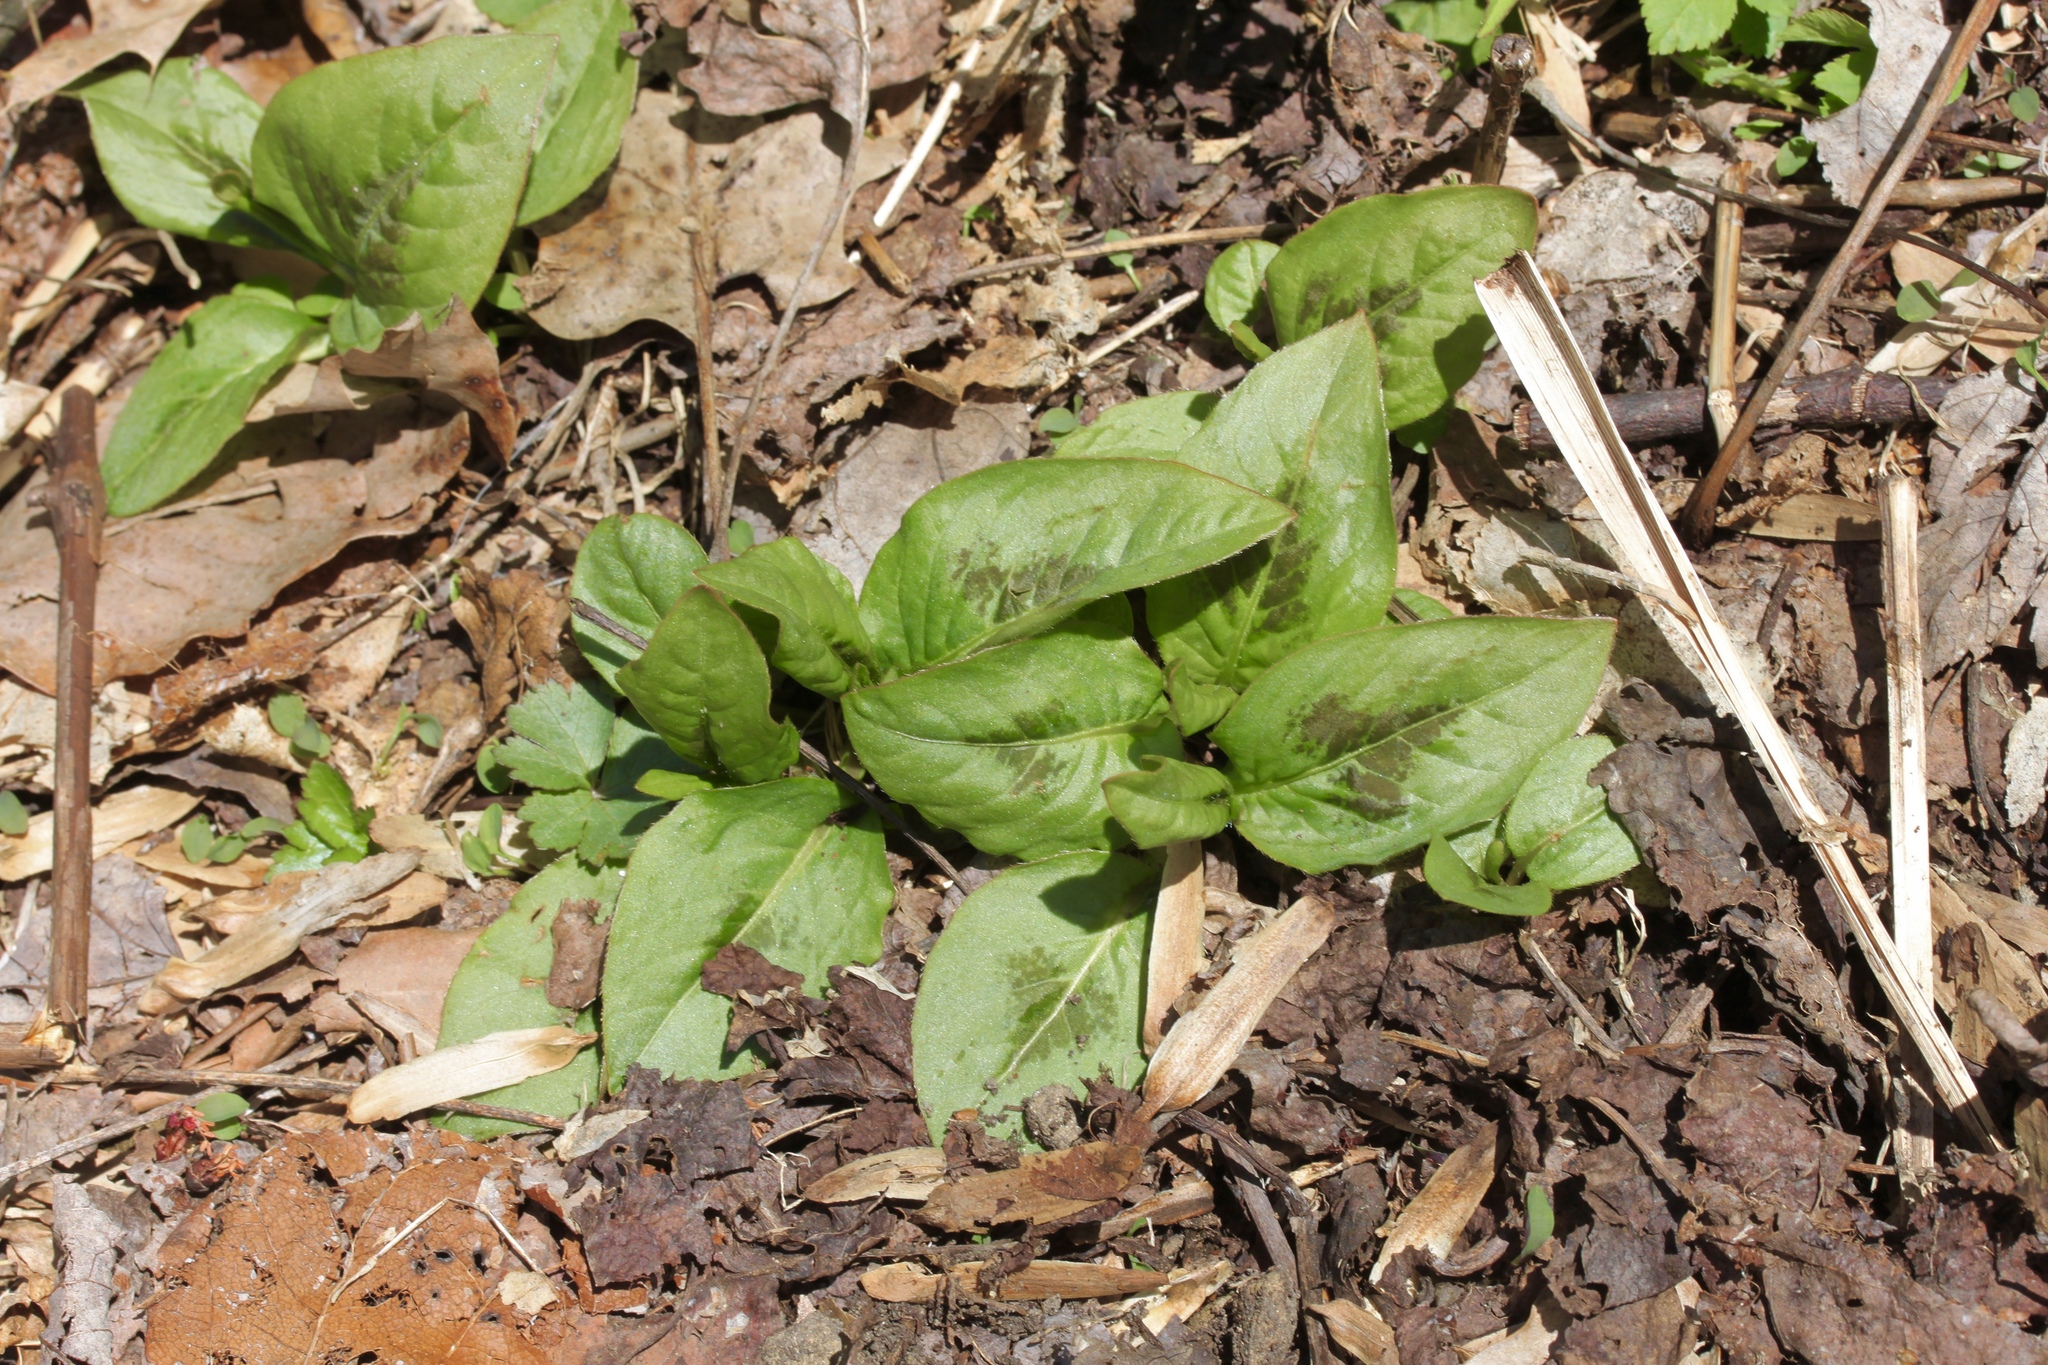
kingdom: Plantae
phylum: Tracheophyta
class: Magnoliopsida
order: Caryophyllales
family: Polygonaceae
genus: Persicaria
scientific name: Persicaria virginiana
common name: Jumpseed
